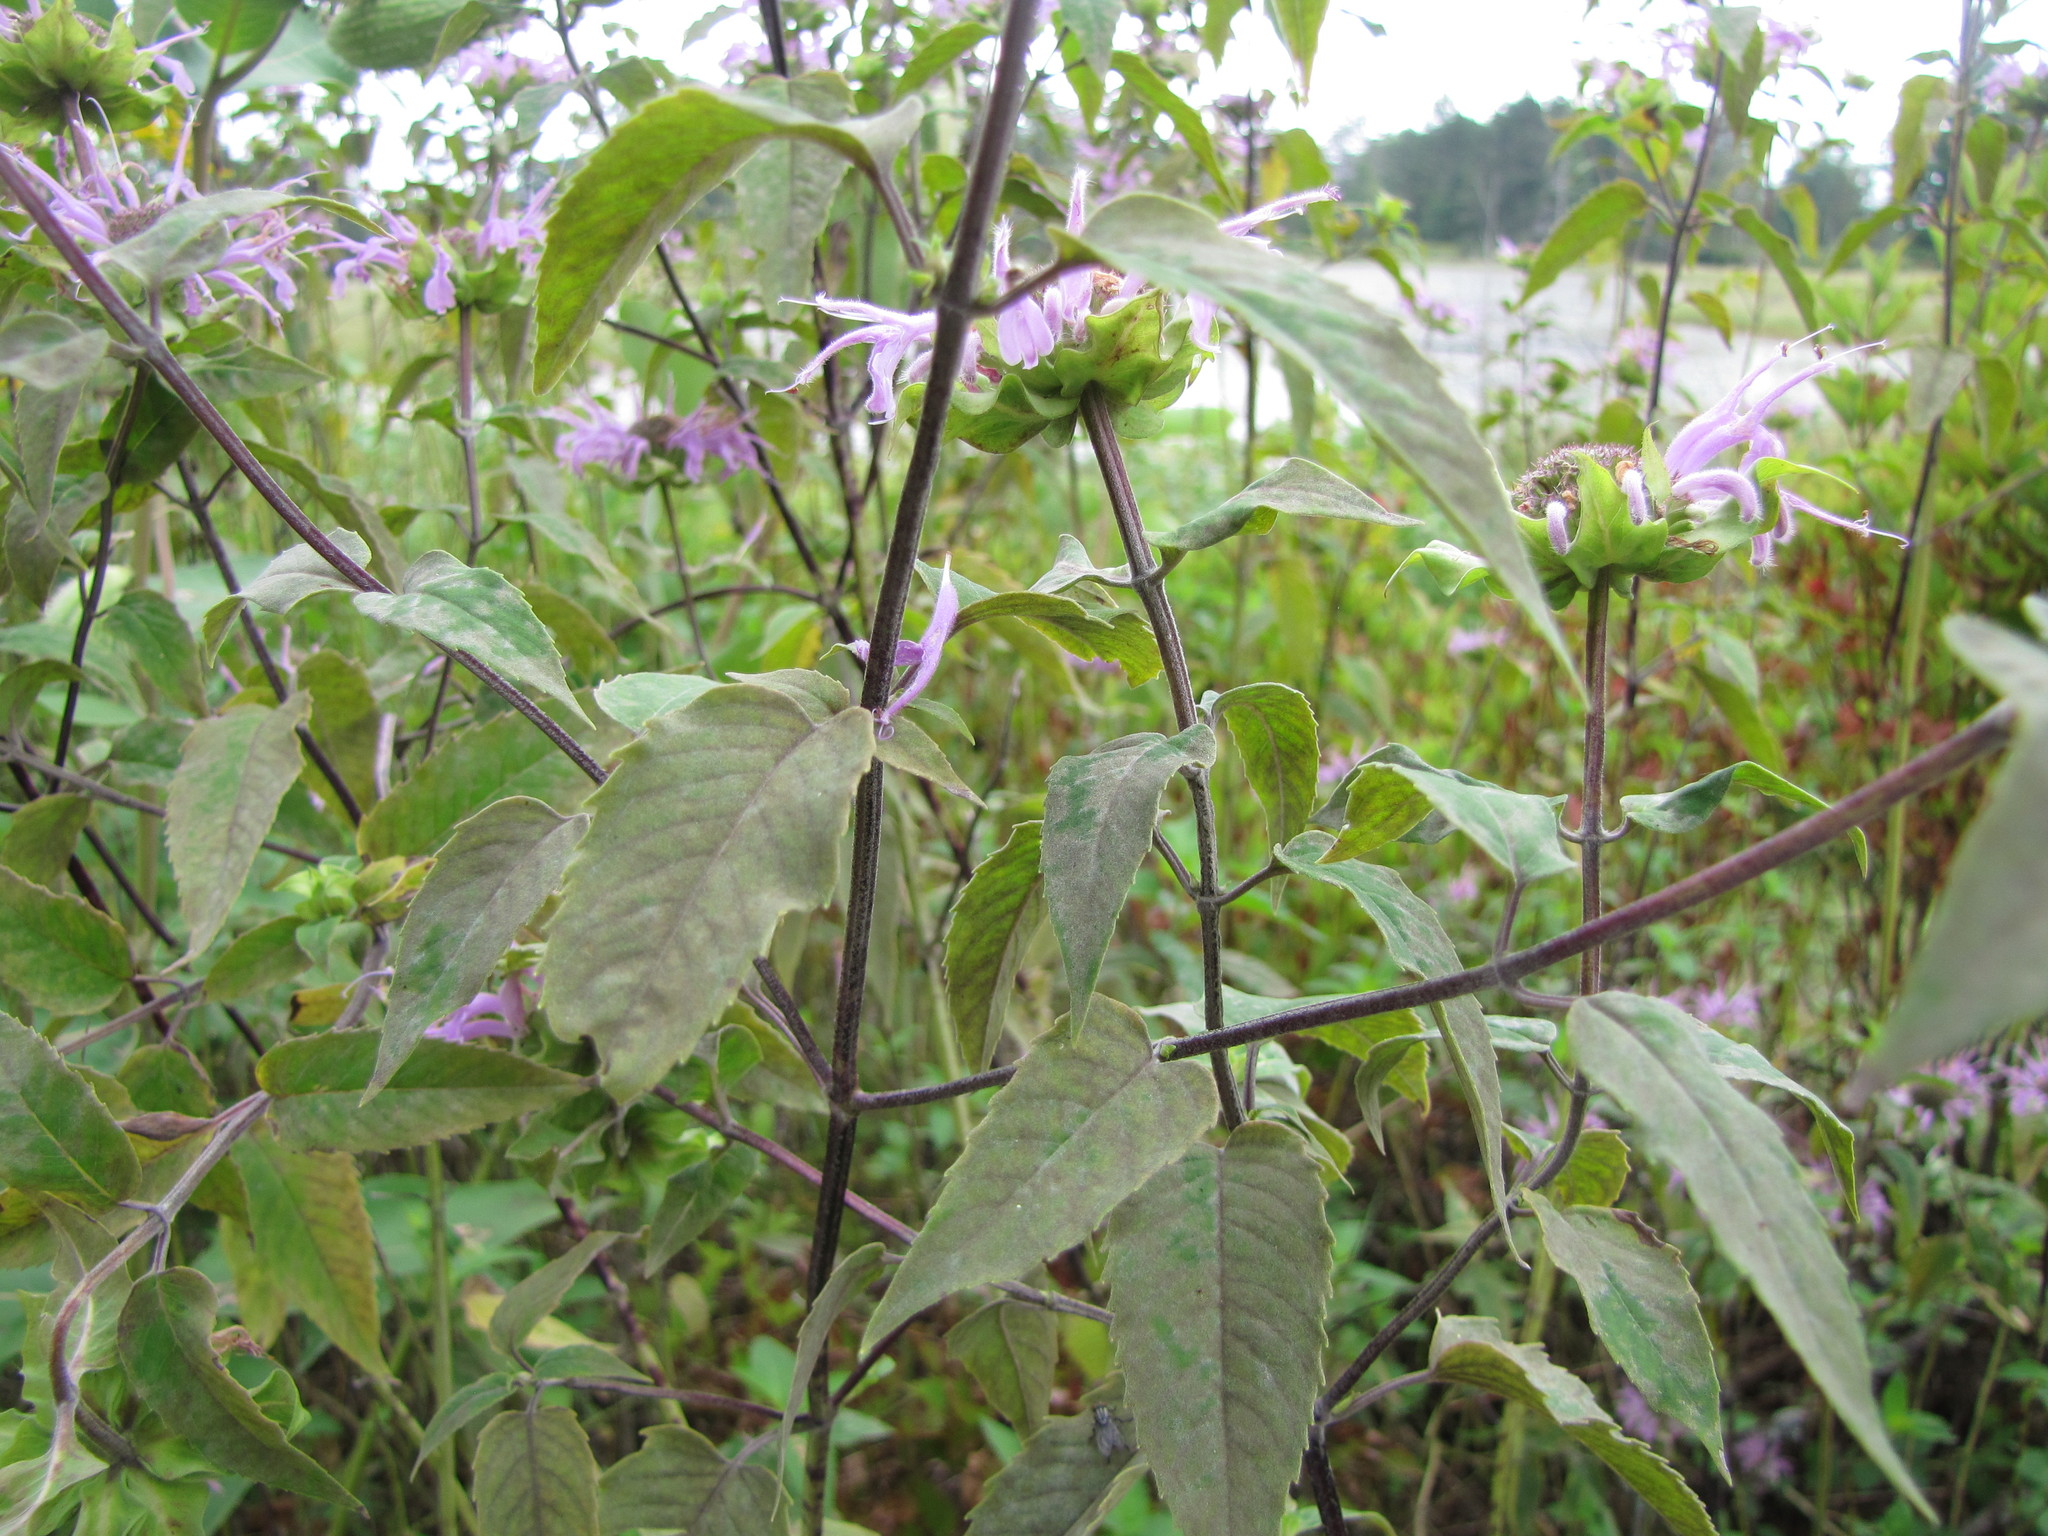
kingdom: Plantae
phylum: Tracheophyta
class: Magnoliopsida
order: Lamiales
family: Lamiaceae
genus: Monarda
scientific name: Monarda fistulosa
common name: Purple beebalm
